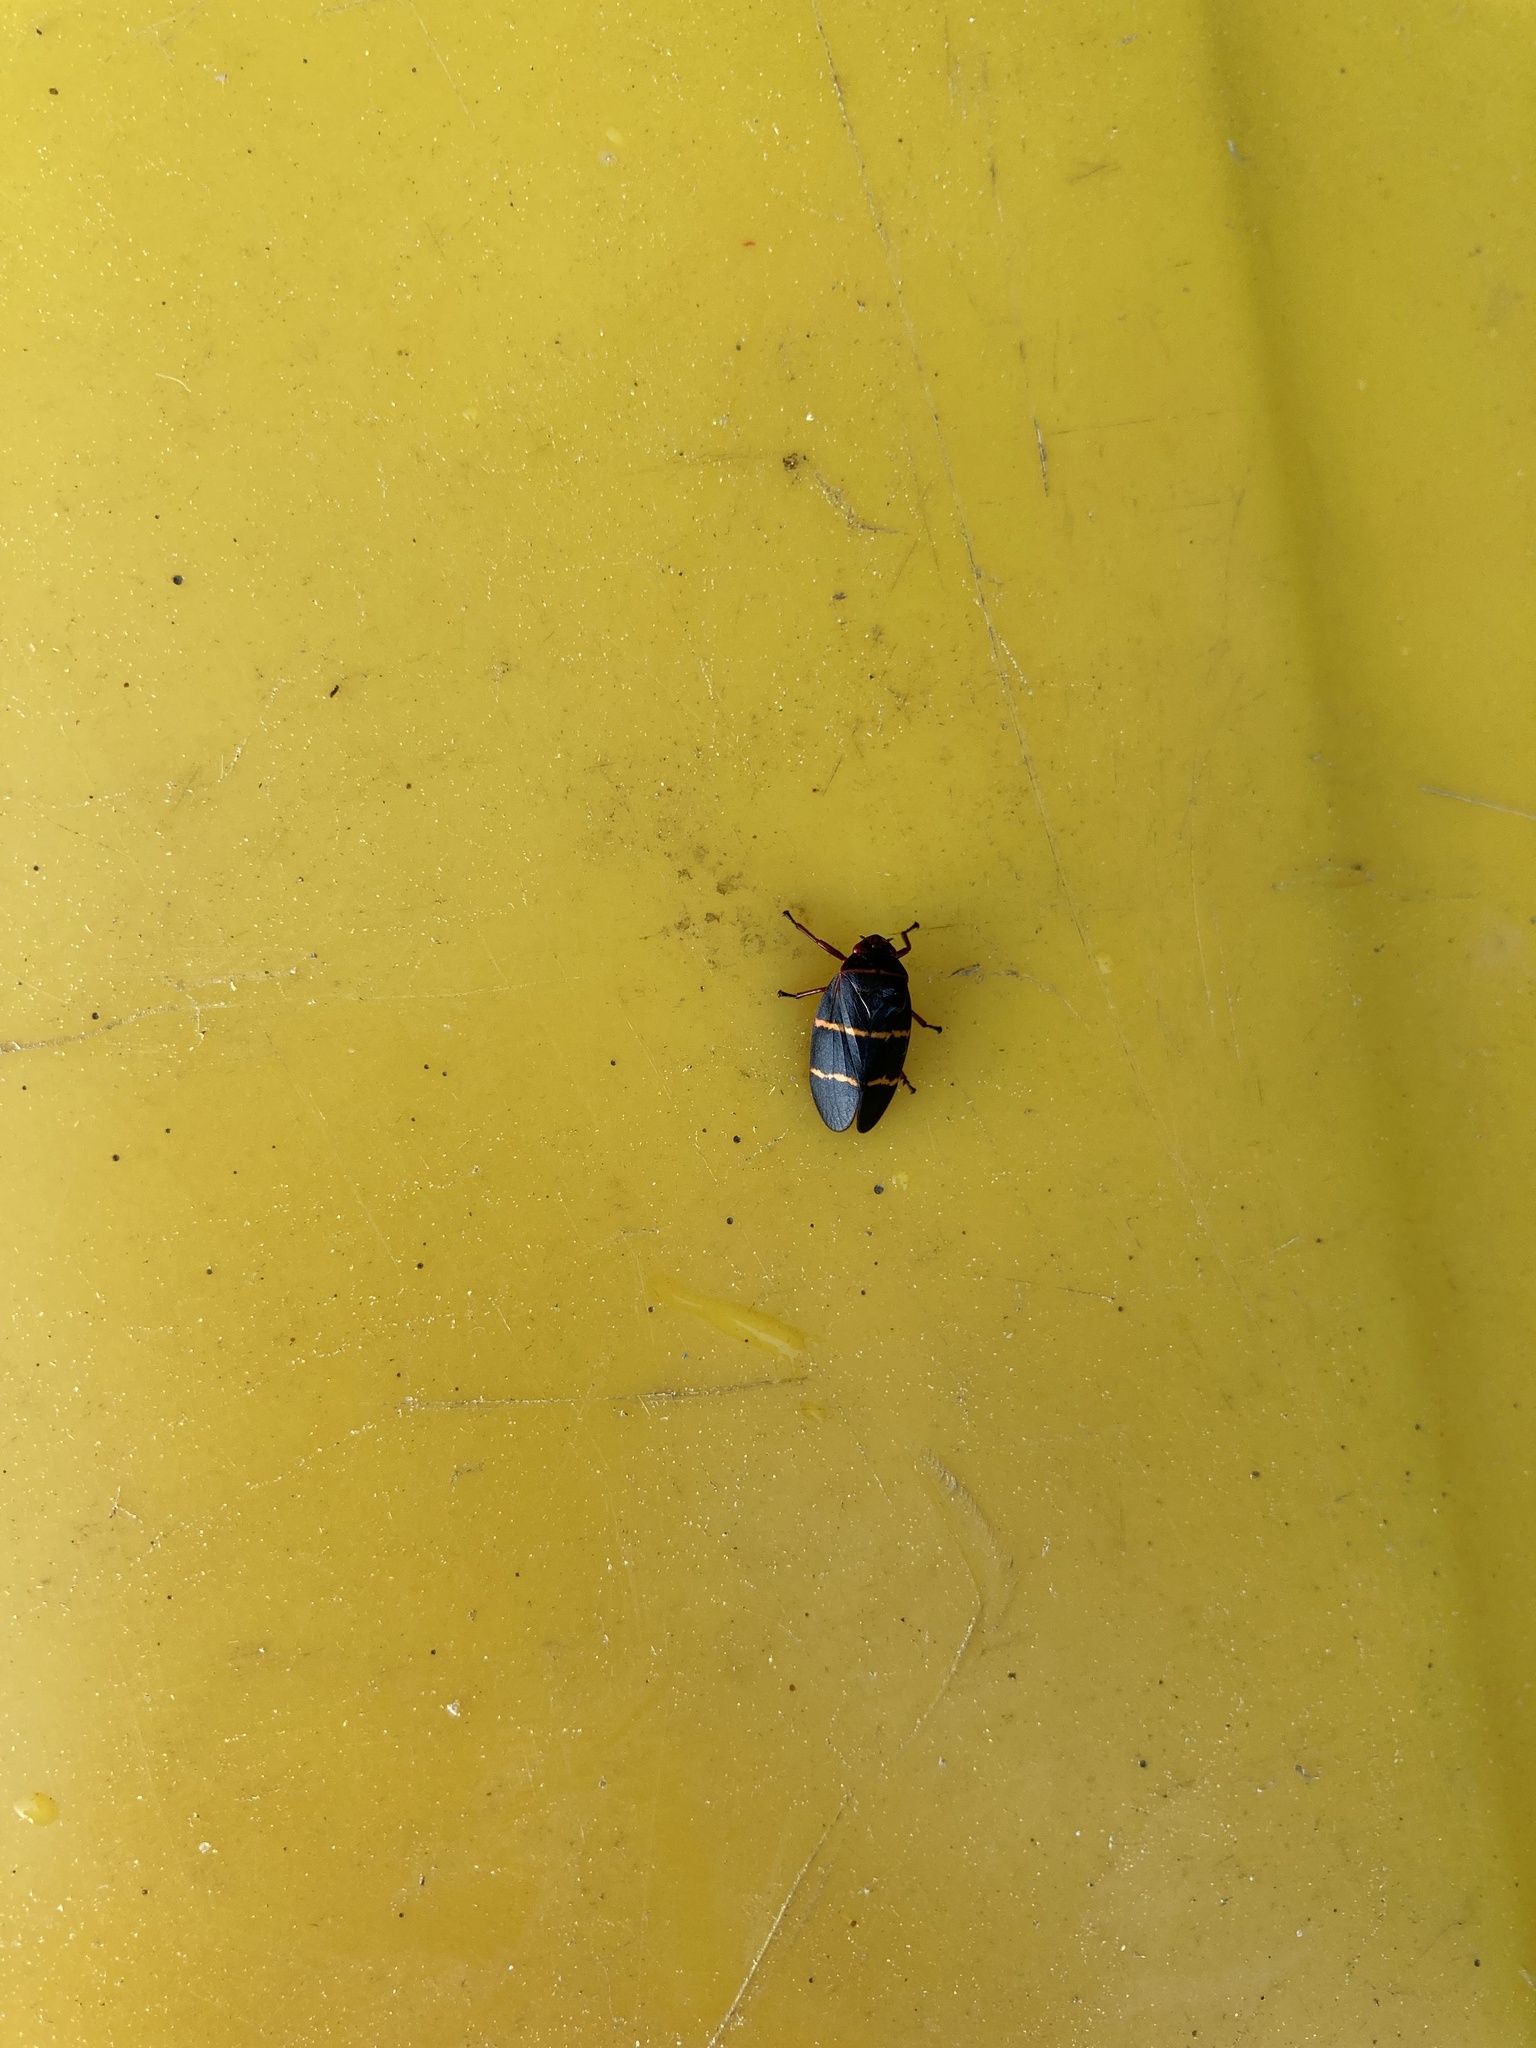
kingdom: Animalia
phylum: Arthropoda
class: Insecta
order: Hemiptera
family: Cercopidae
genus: Prosapia
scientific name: Prosapia bicincta
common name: Twolined spittlebug
